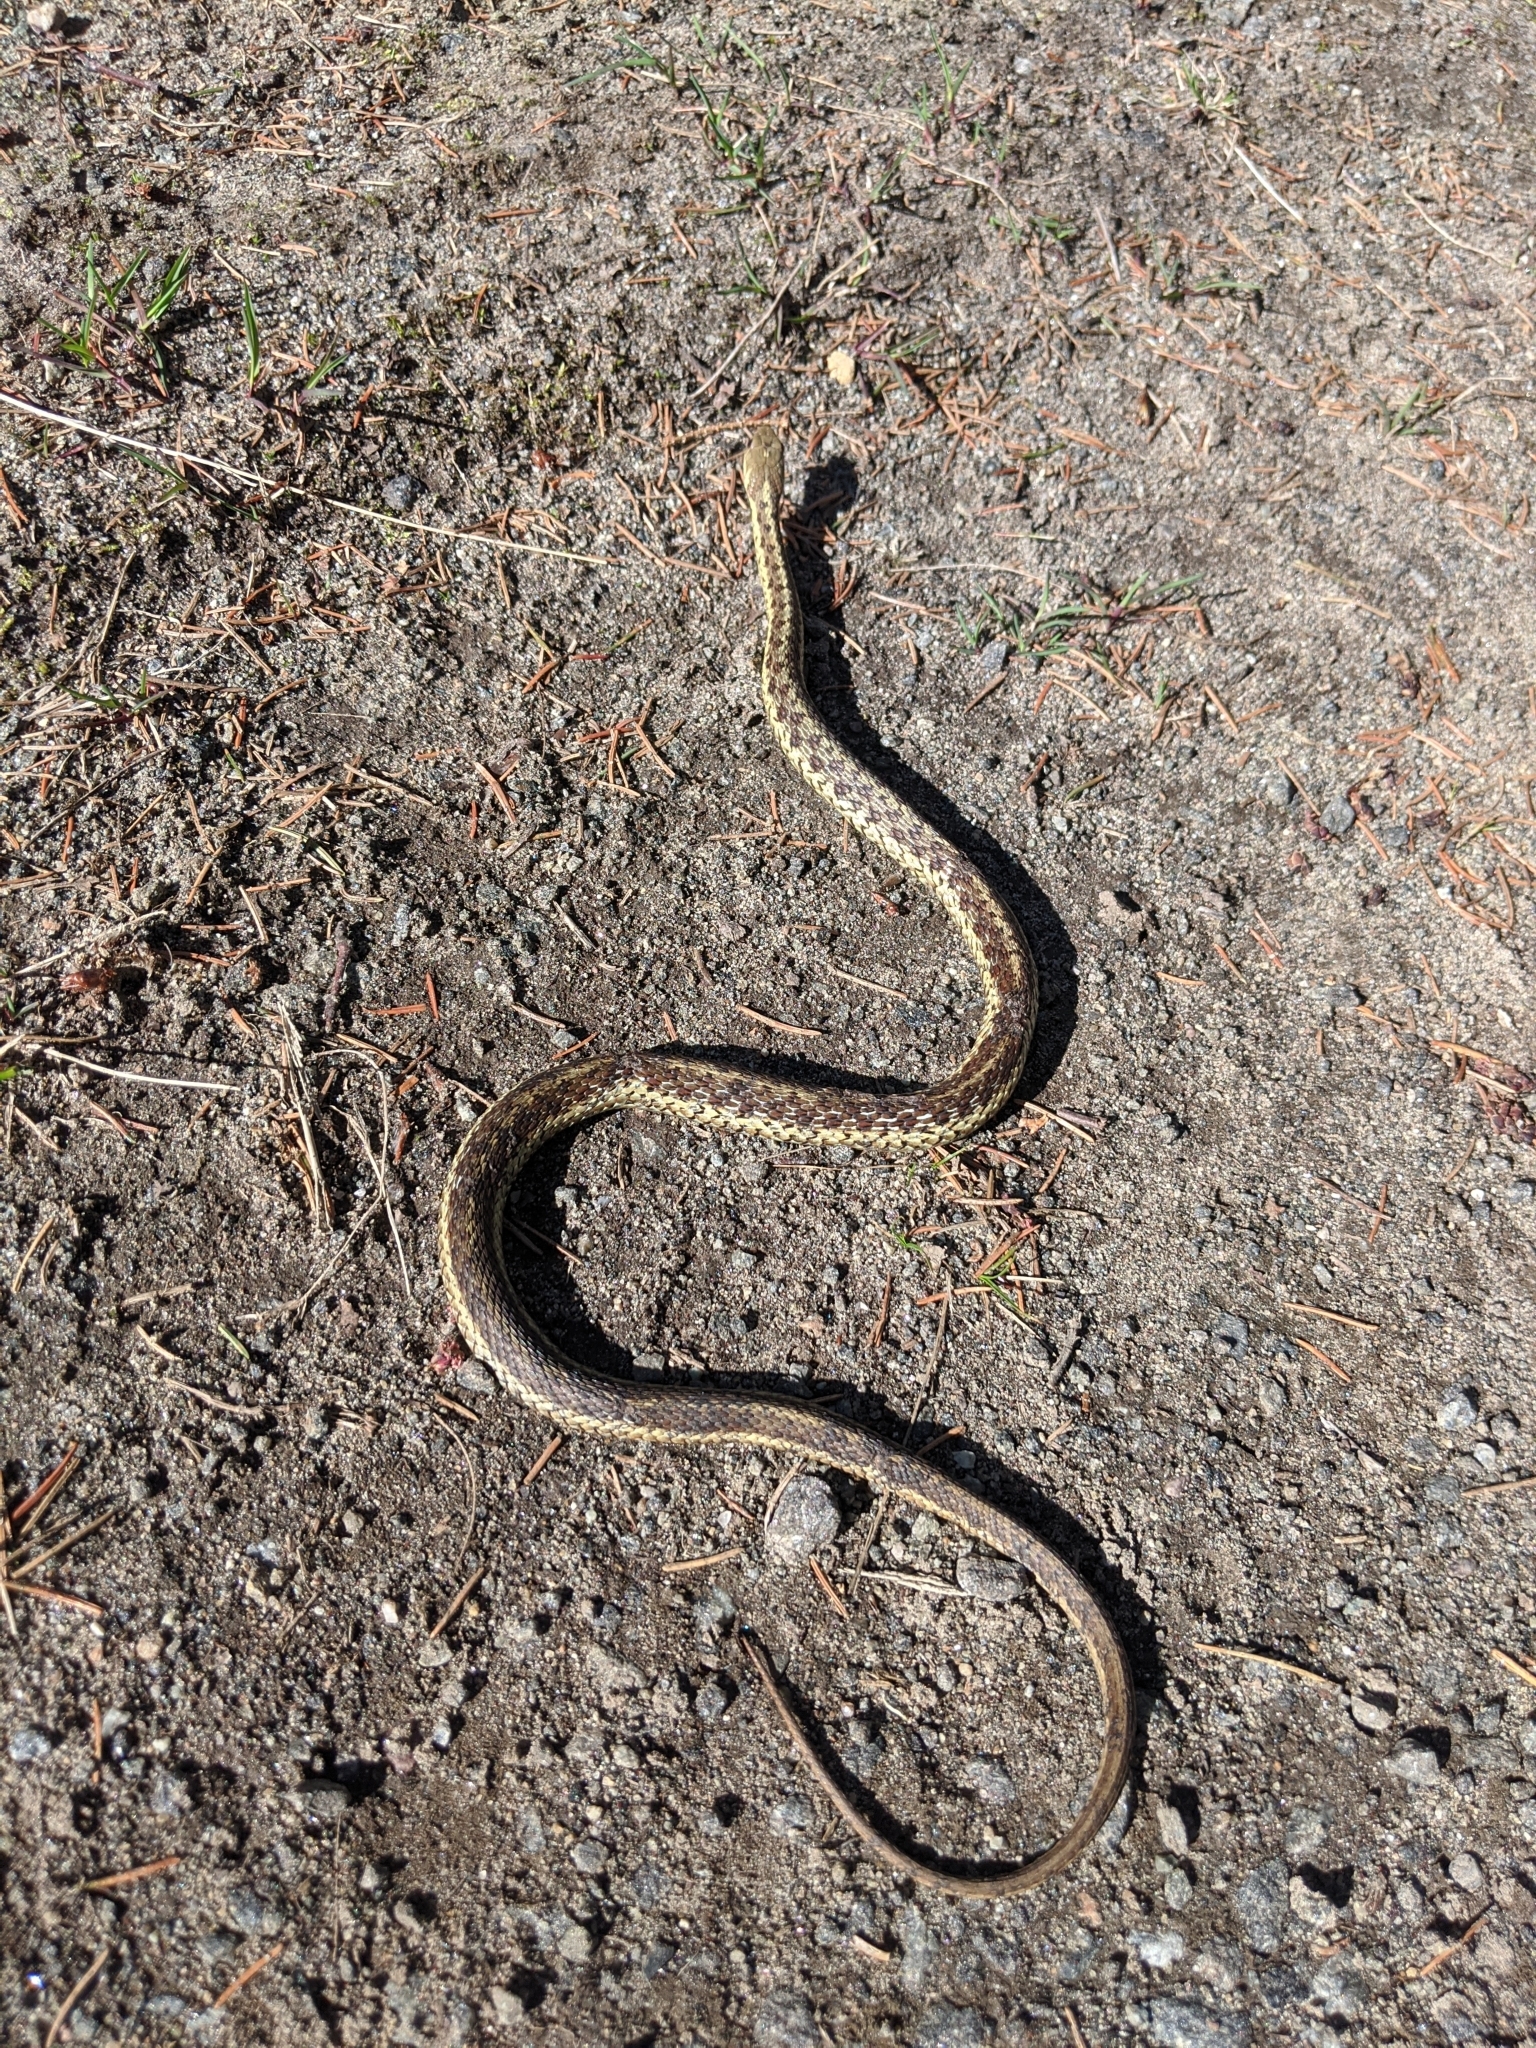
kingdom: Animalia
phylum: Chordata
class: Squamata
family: Colubridae
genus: Thamnophis
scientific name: Thamnophis sirtalis
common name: Common garter snake
